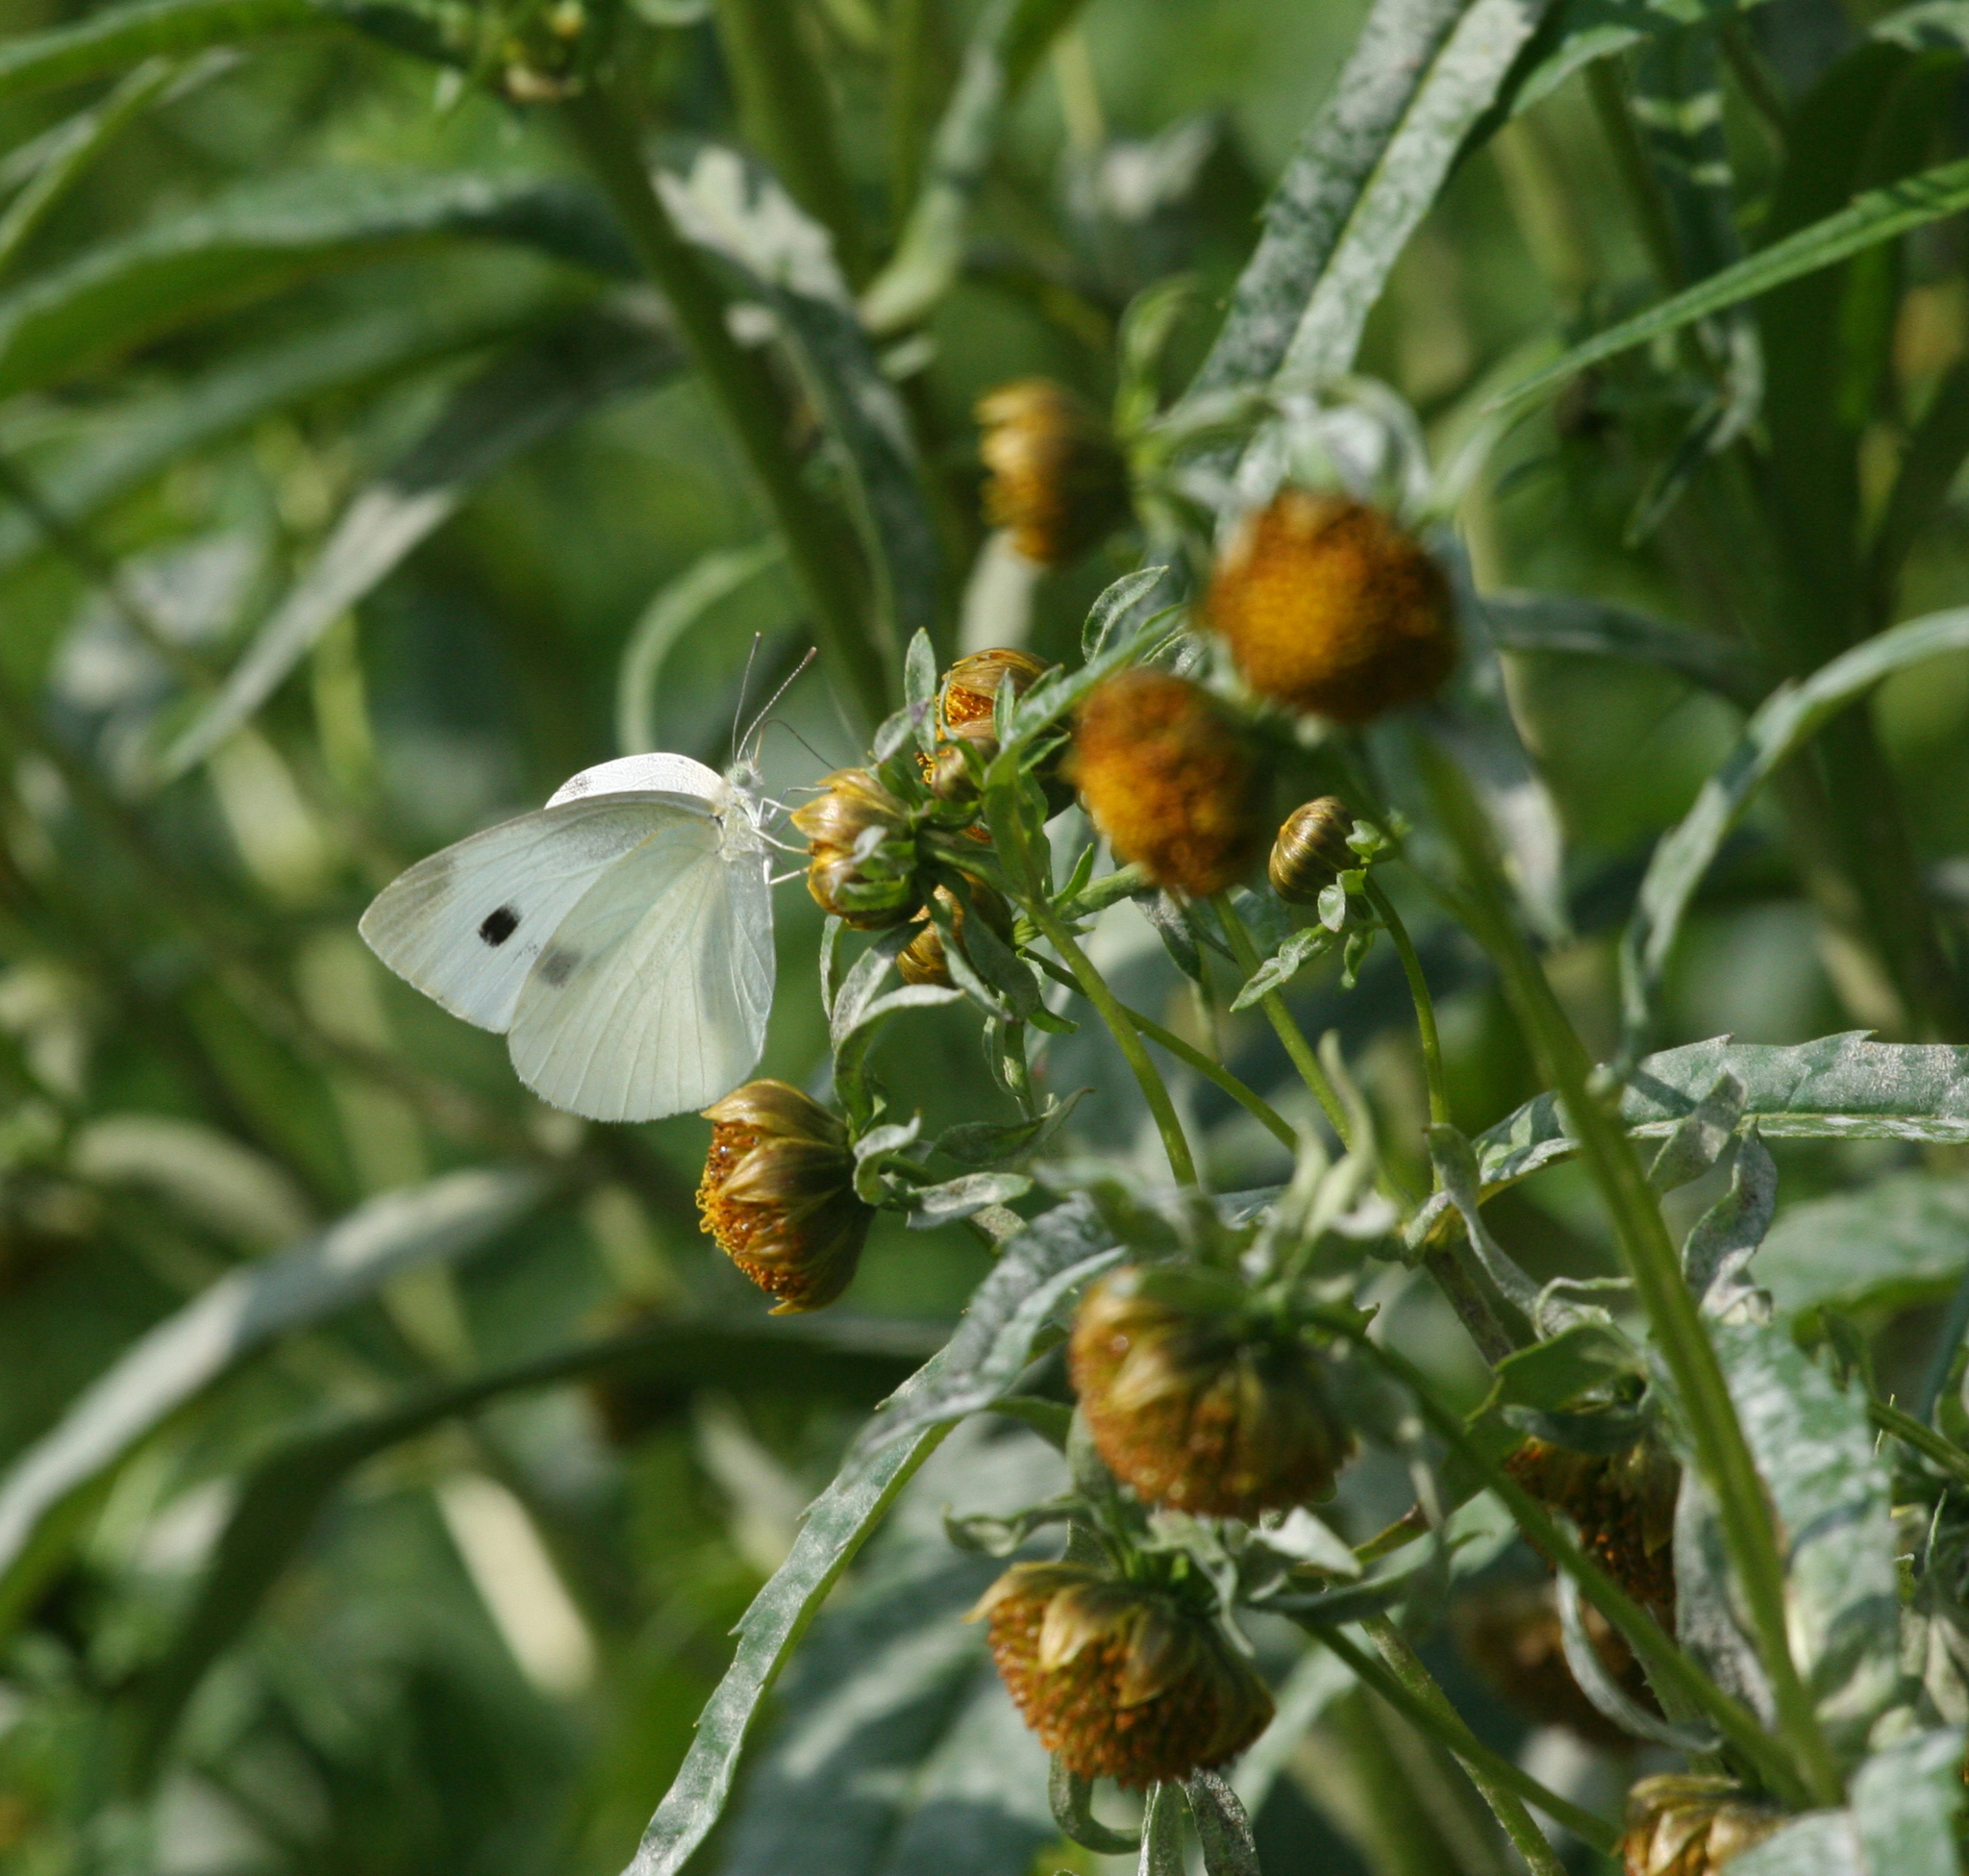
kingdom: Plantae
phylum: Tracheophyta
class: Magnoliopsida
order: Asterales
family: Asteraceae
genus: Bidens
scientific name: Bidens cernua
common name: Nodding bur-marigold
